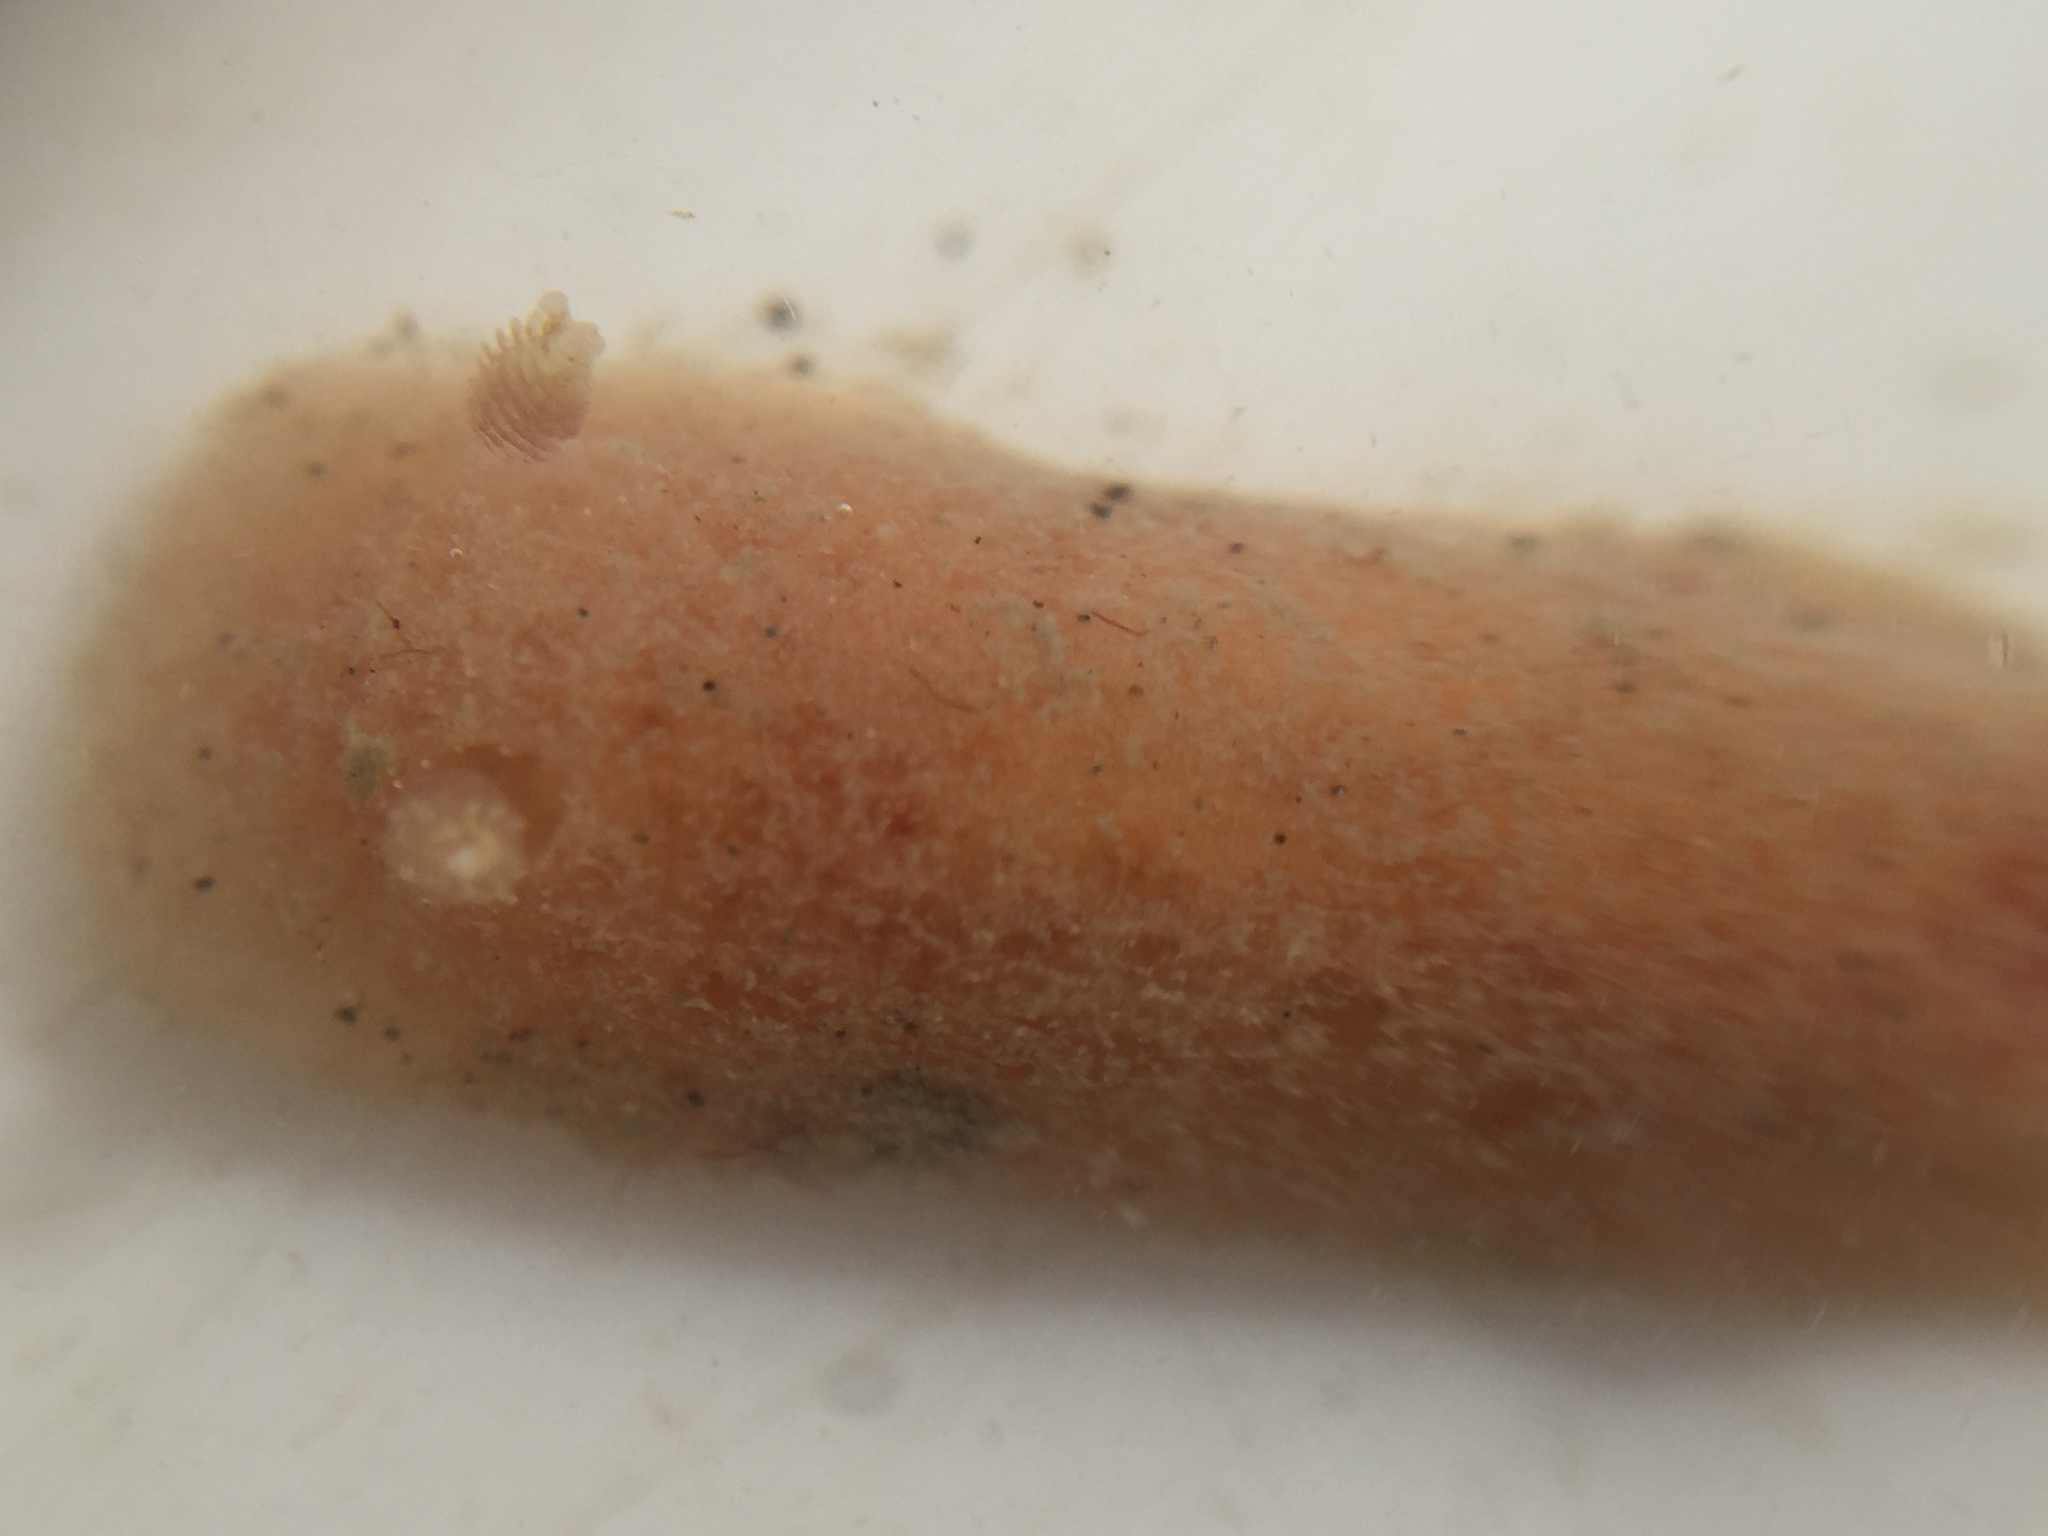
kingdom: Animalia
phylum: Mollusca
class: Gastropoda
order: Nudibranchia
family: Discodorididae
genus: Jorunna
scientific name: Jorunna pantherina
